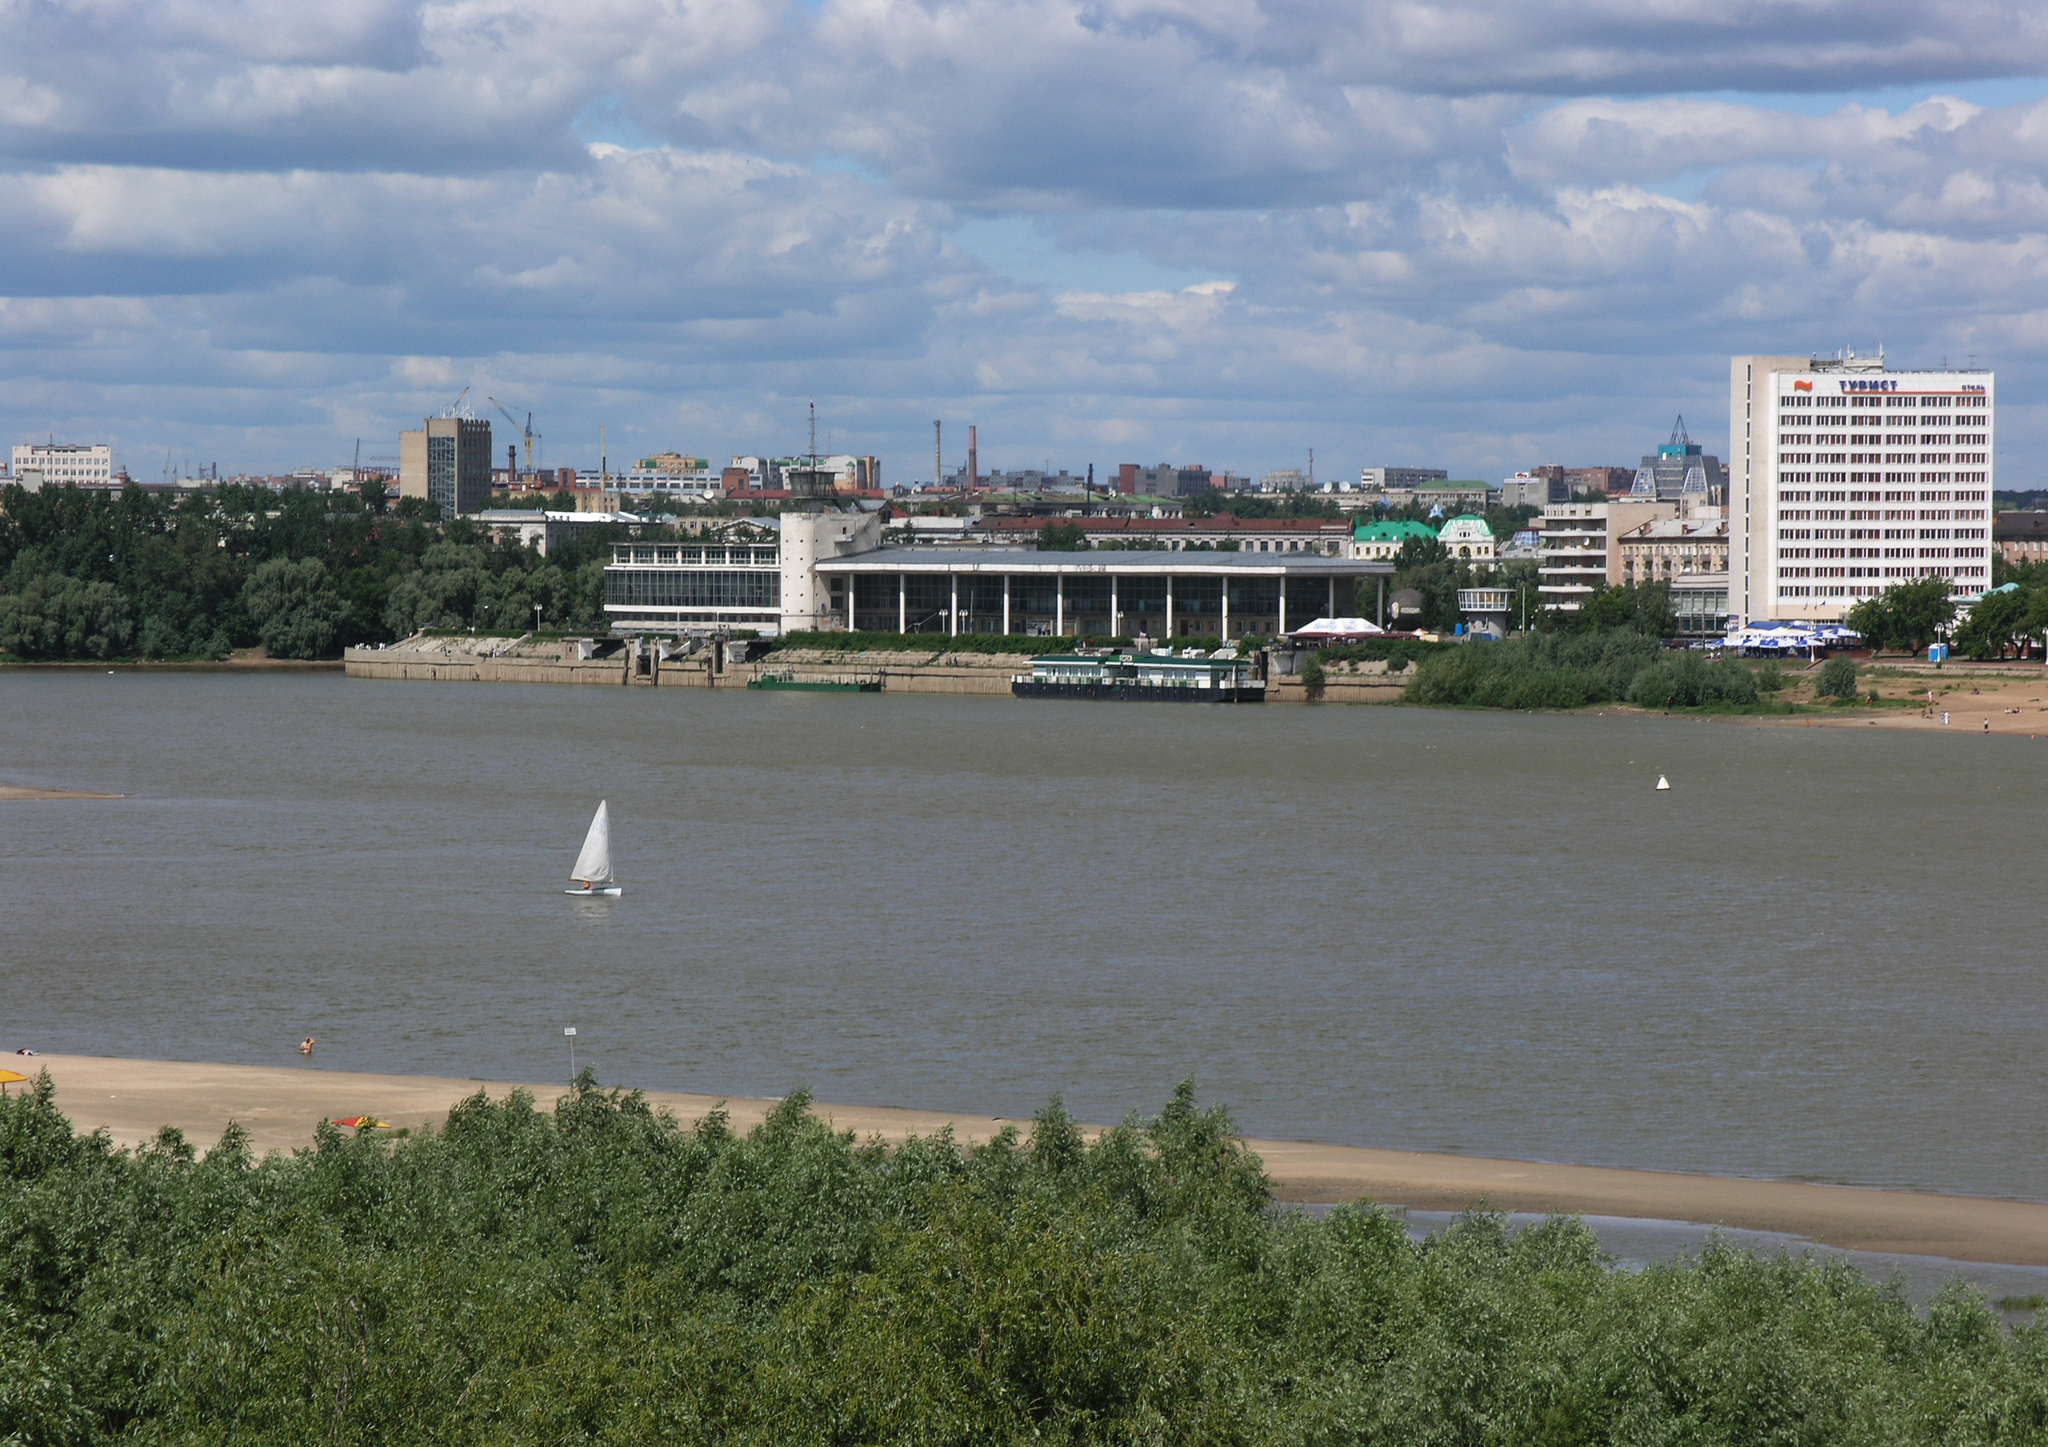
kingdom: Plantae
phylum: Tracheophyta
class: Magnoliopsida
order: Malpighiales
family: Salicaceae
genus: Salix
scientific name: Salix alba
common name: White willow
